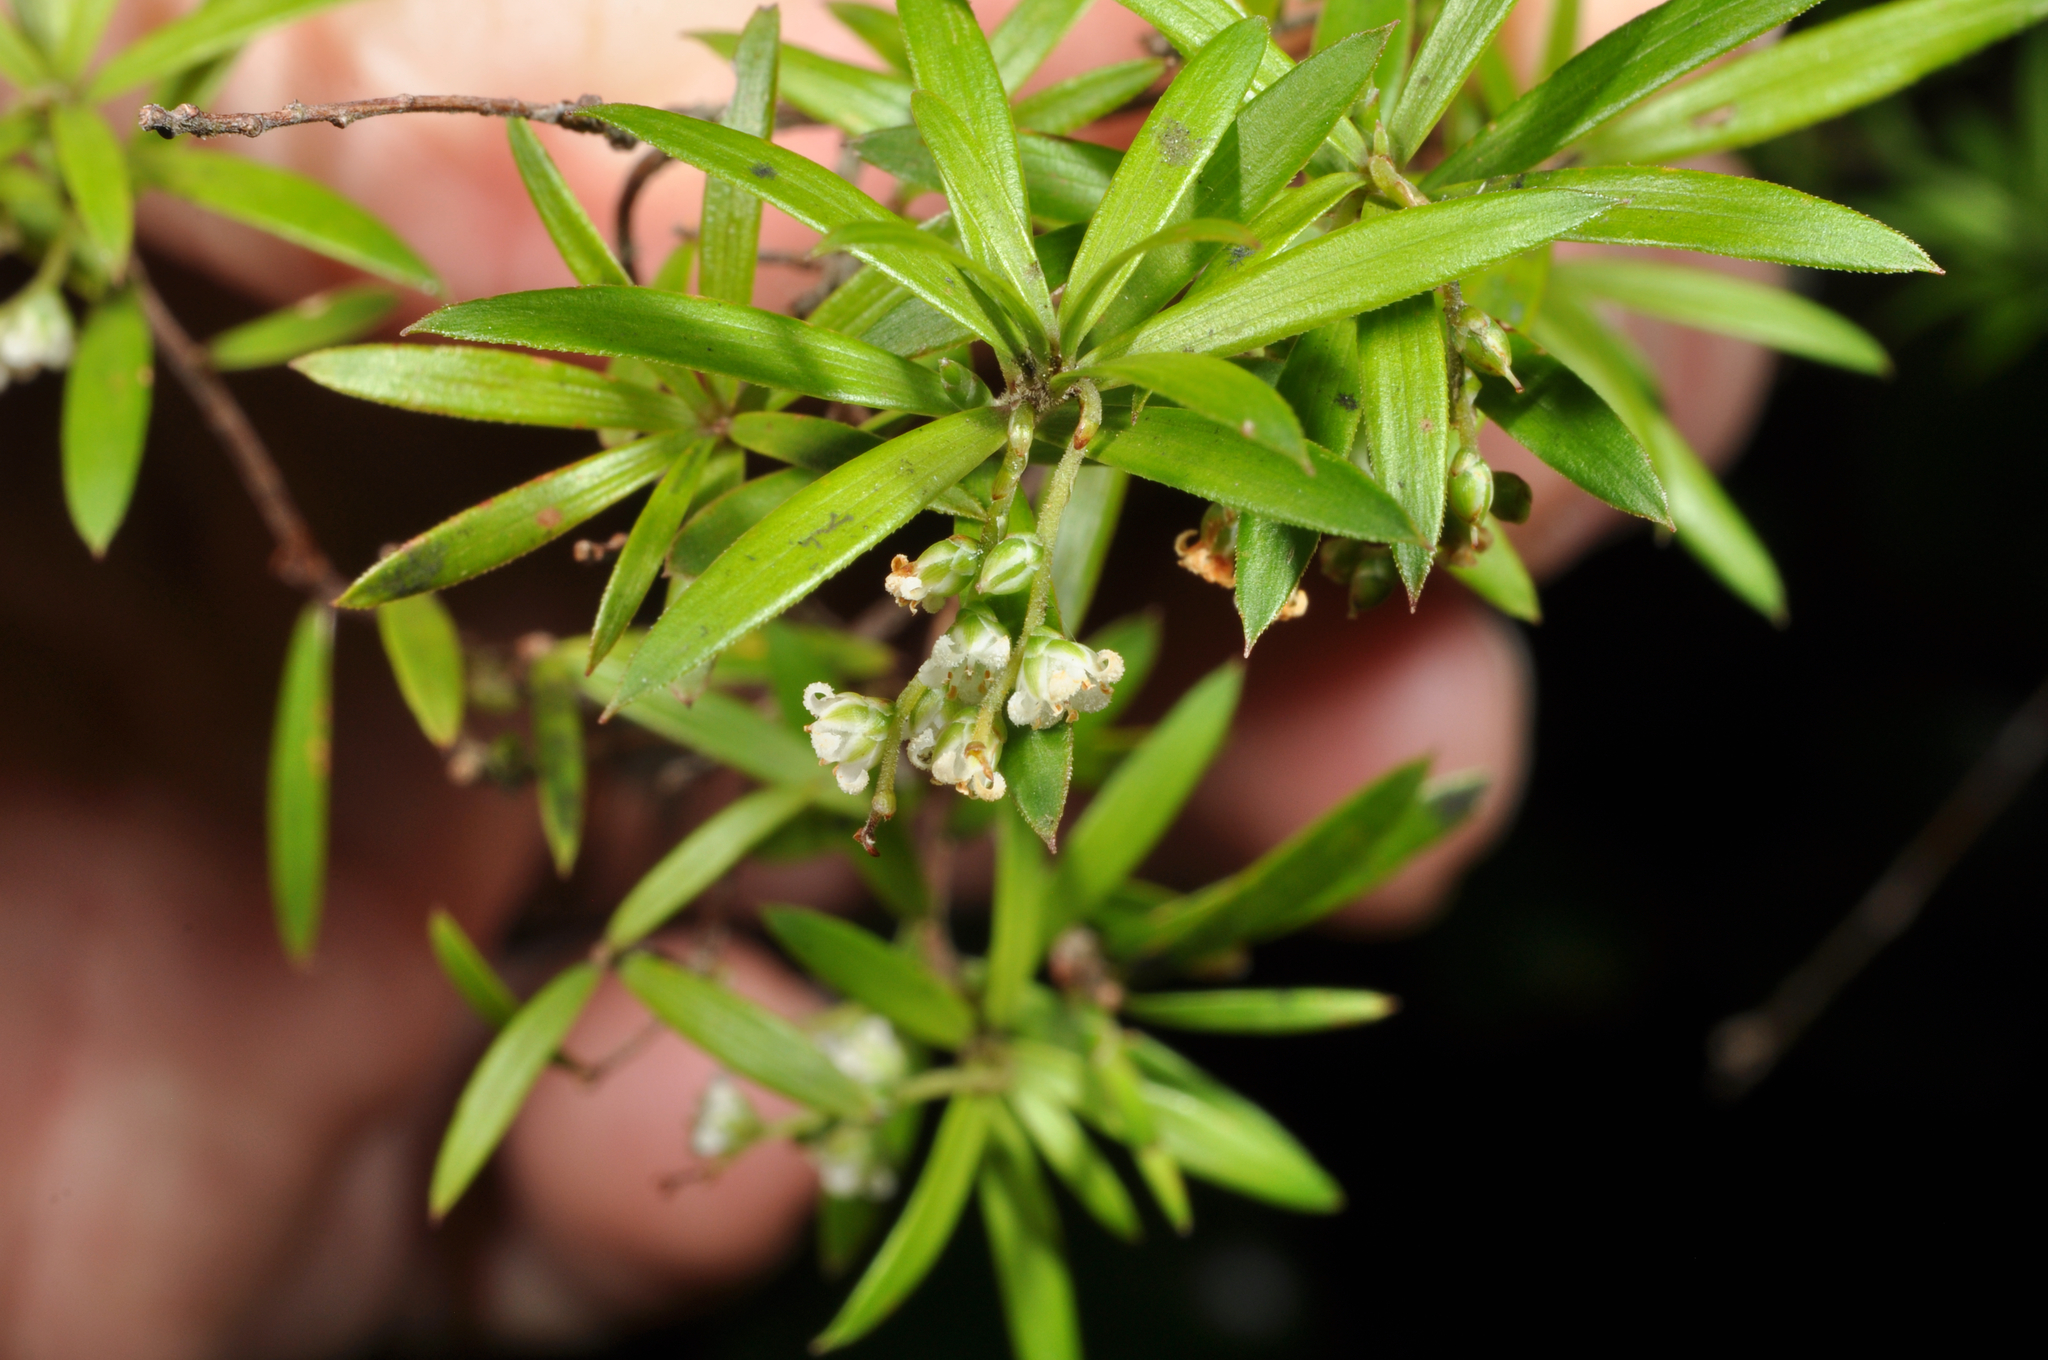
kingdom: Plantae
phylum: Tracheophyta
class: Magnoliopsida
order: Ericales
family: Ericaceae
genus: Leucopogon
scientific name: Leucopogon fasciculatus
